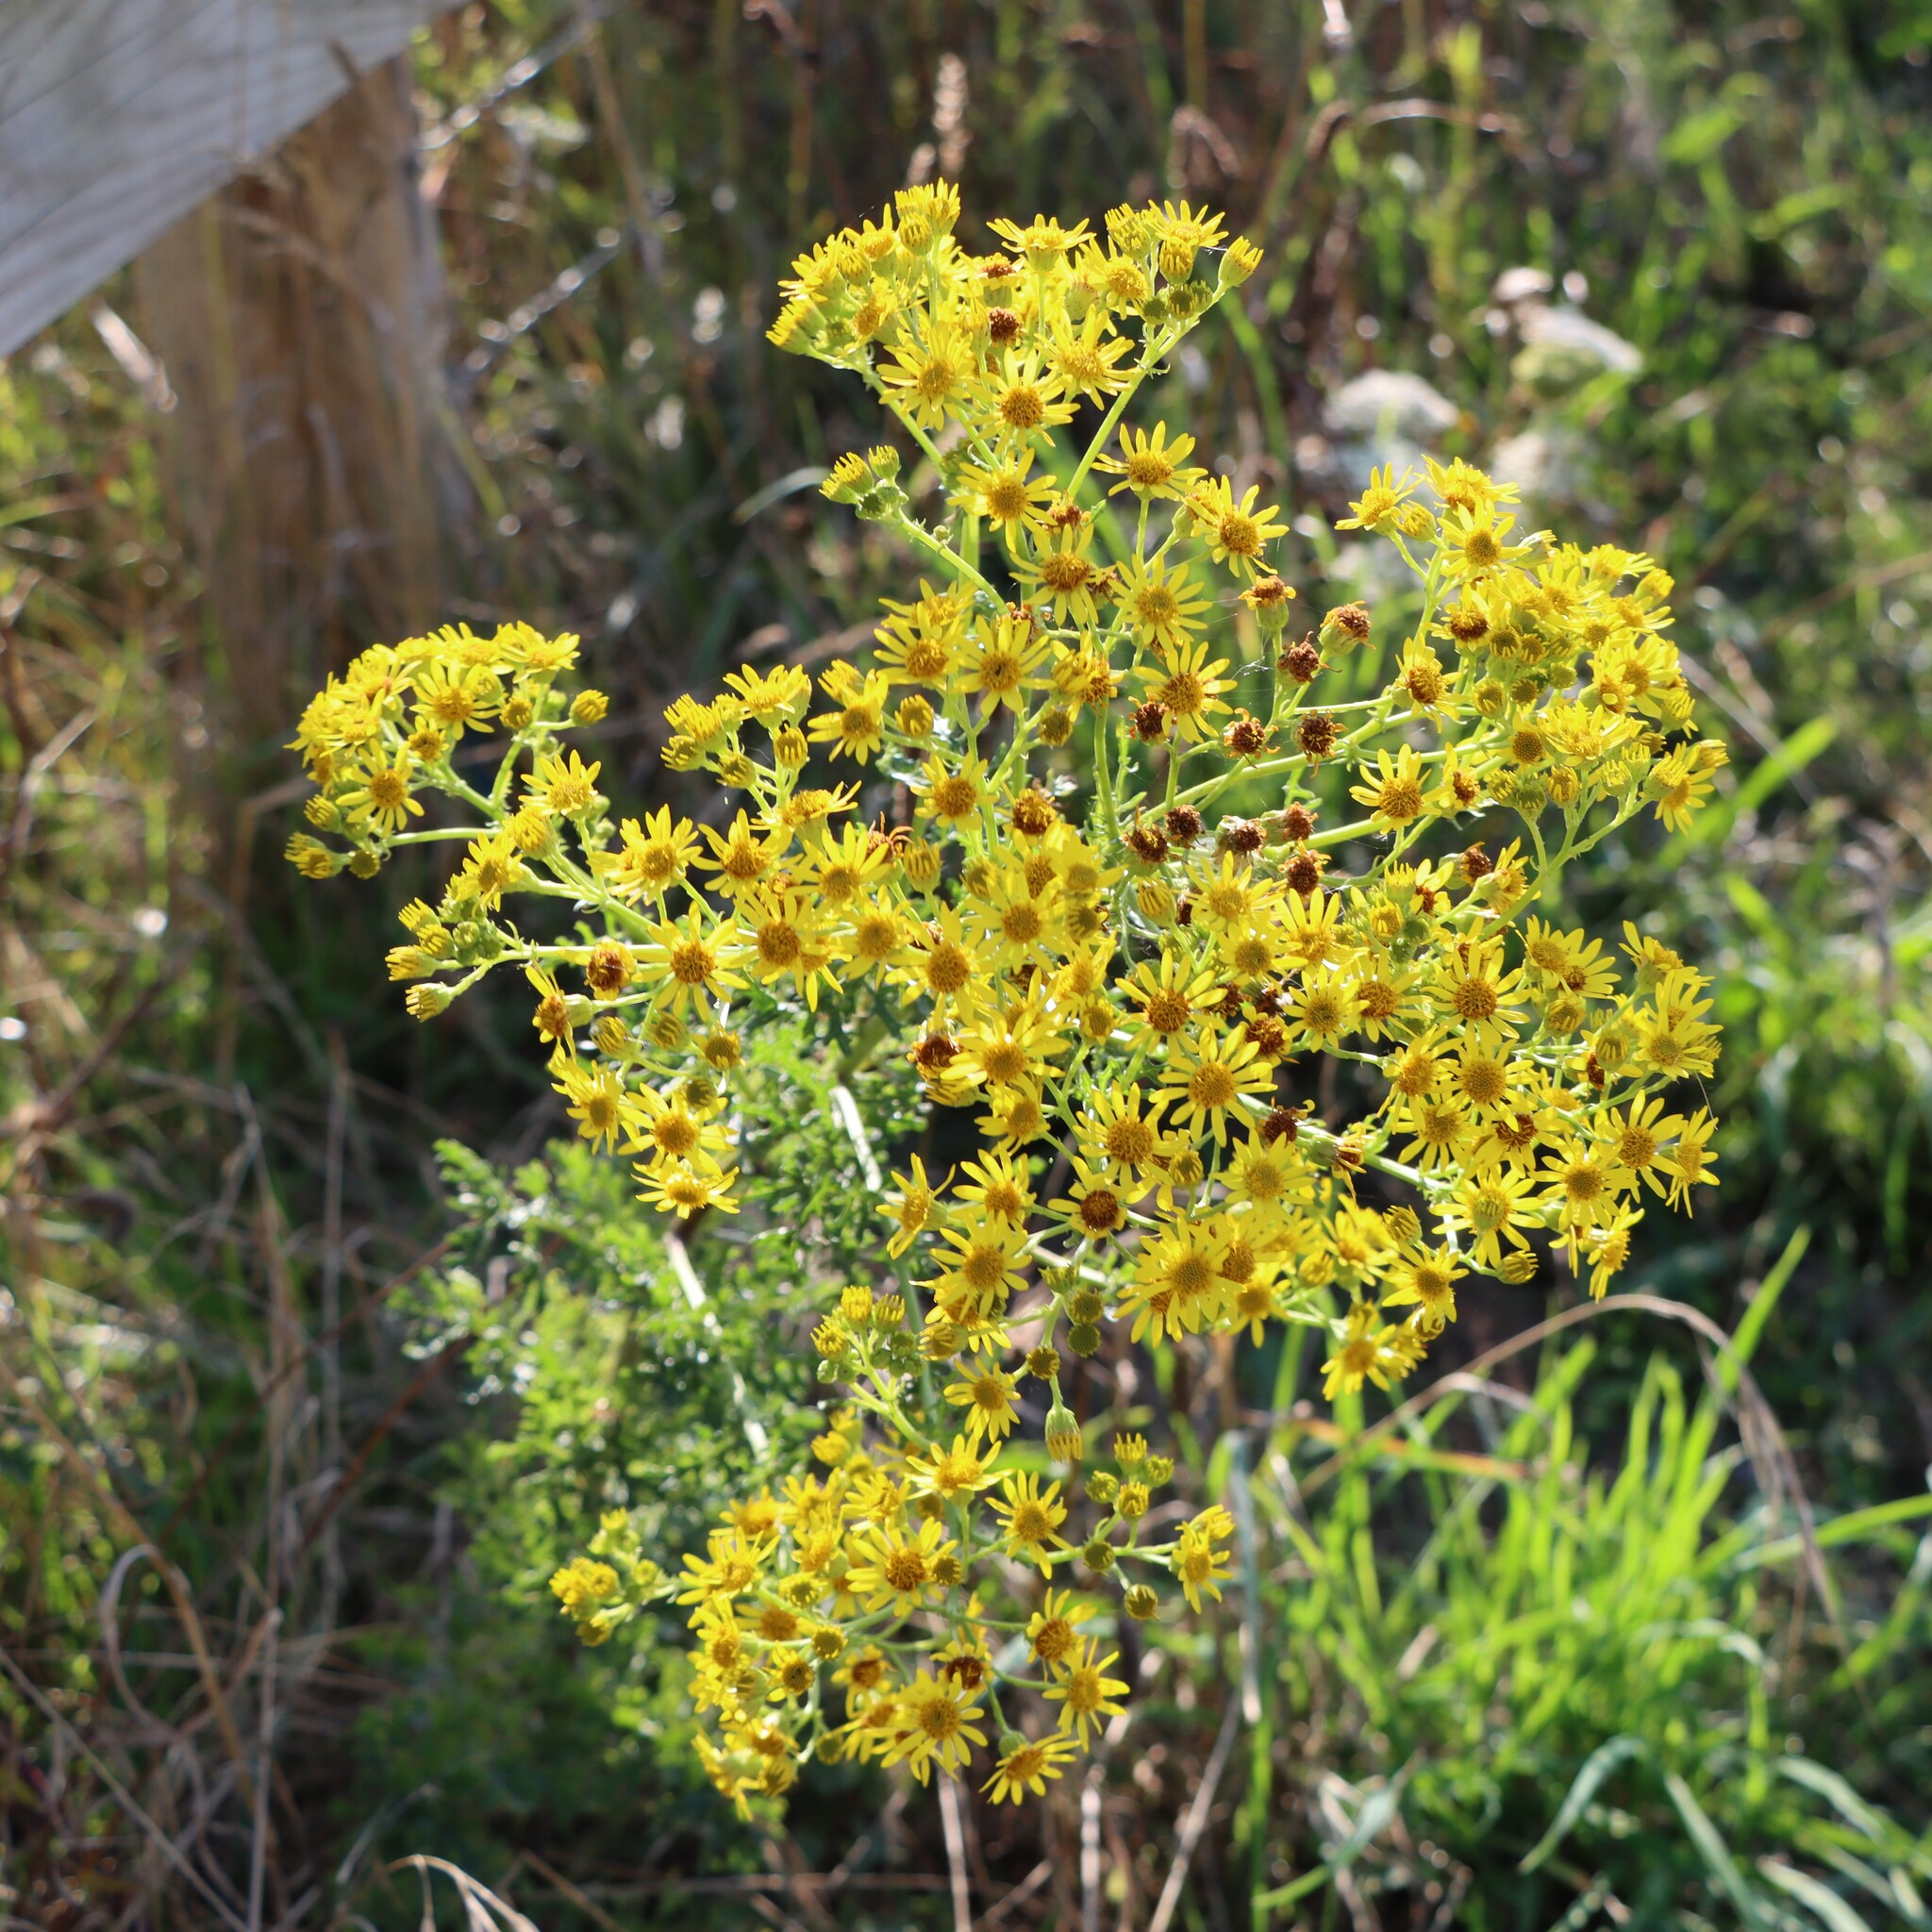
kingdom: Plantae
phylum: Tracheophyta
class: Magnoliopsida
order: Asterales
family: Asteraceae
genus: Jacobaea
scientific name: Jacobaea vulgaris
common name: Stinking willie
